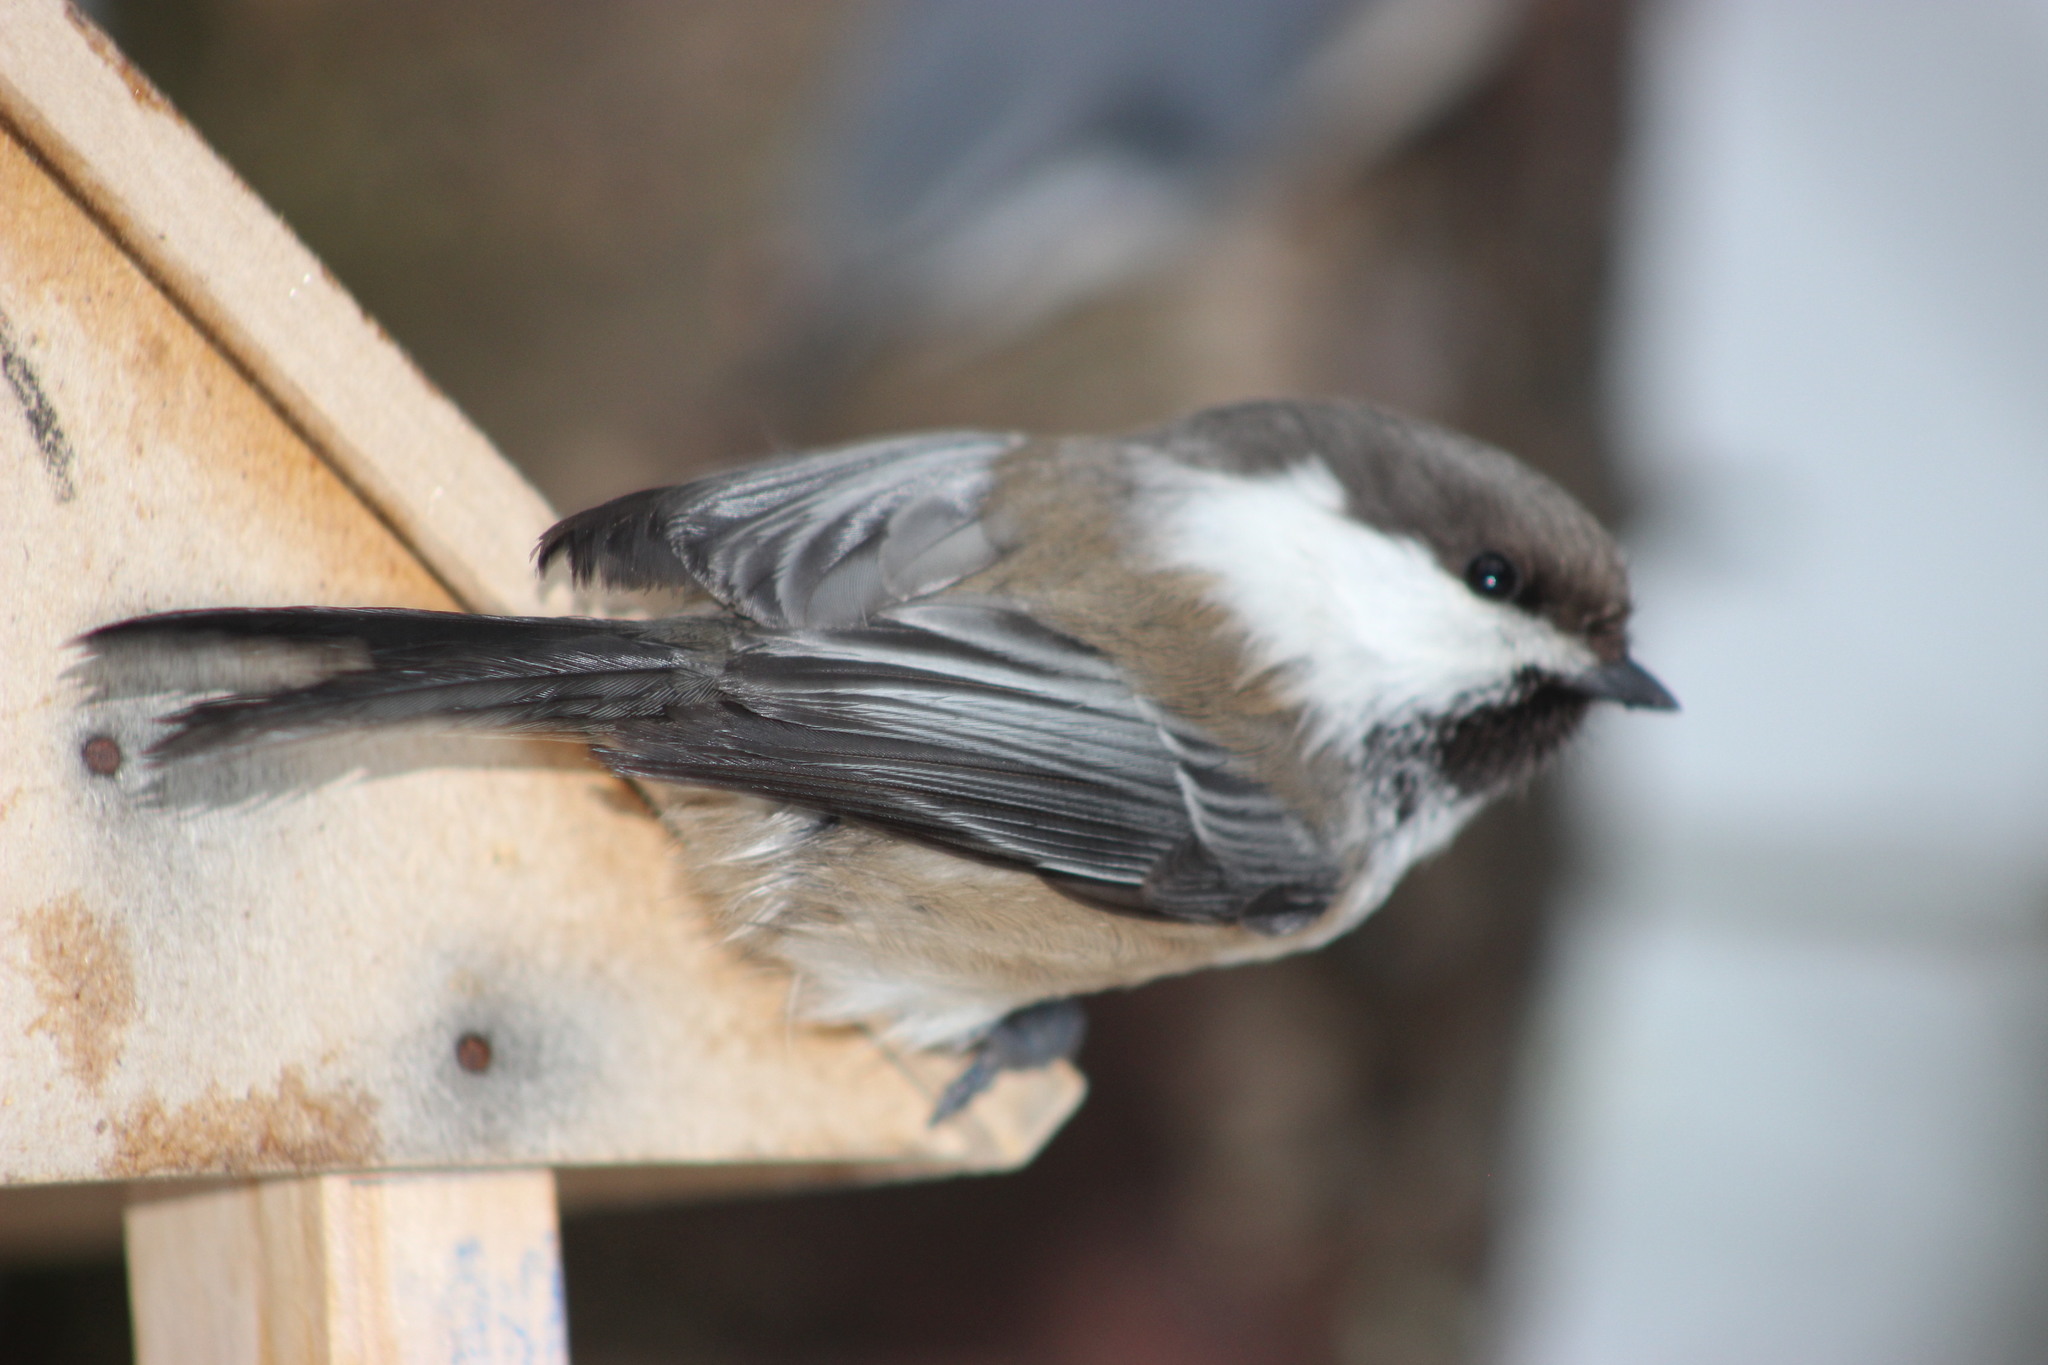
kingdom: Animalia
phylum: Chordata
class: Aves
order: Passeriformes
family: Paridae
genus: Poecile
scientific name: Poecile cinctus
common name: Gray-headed chickadee
